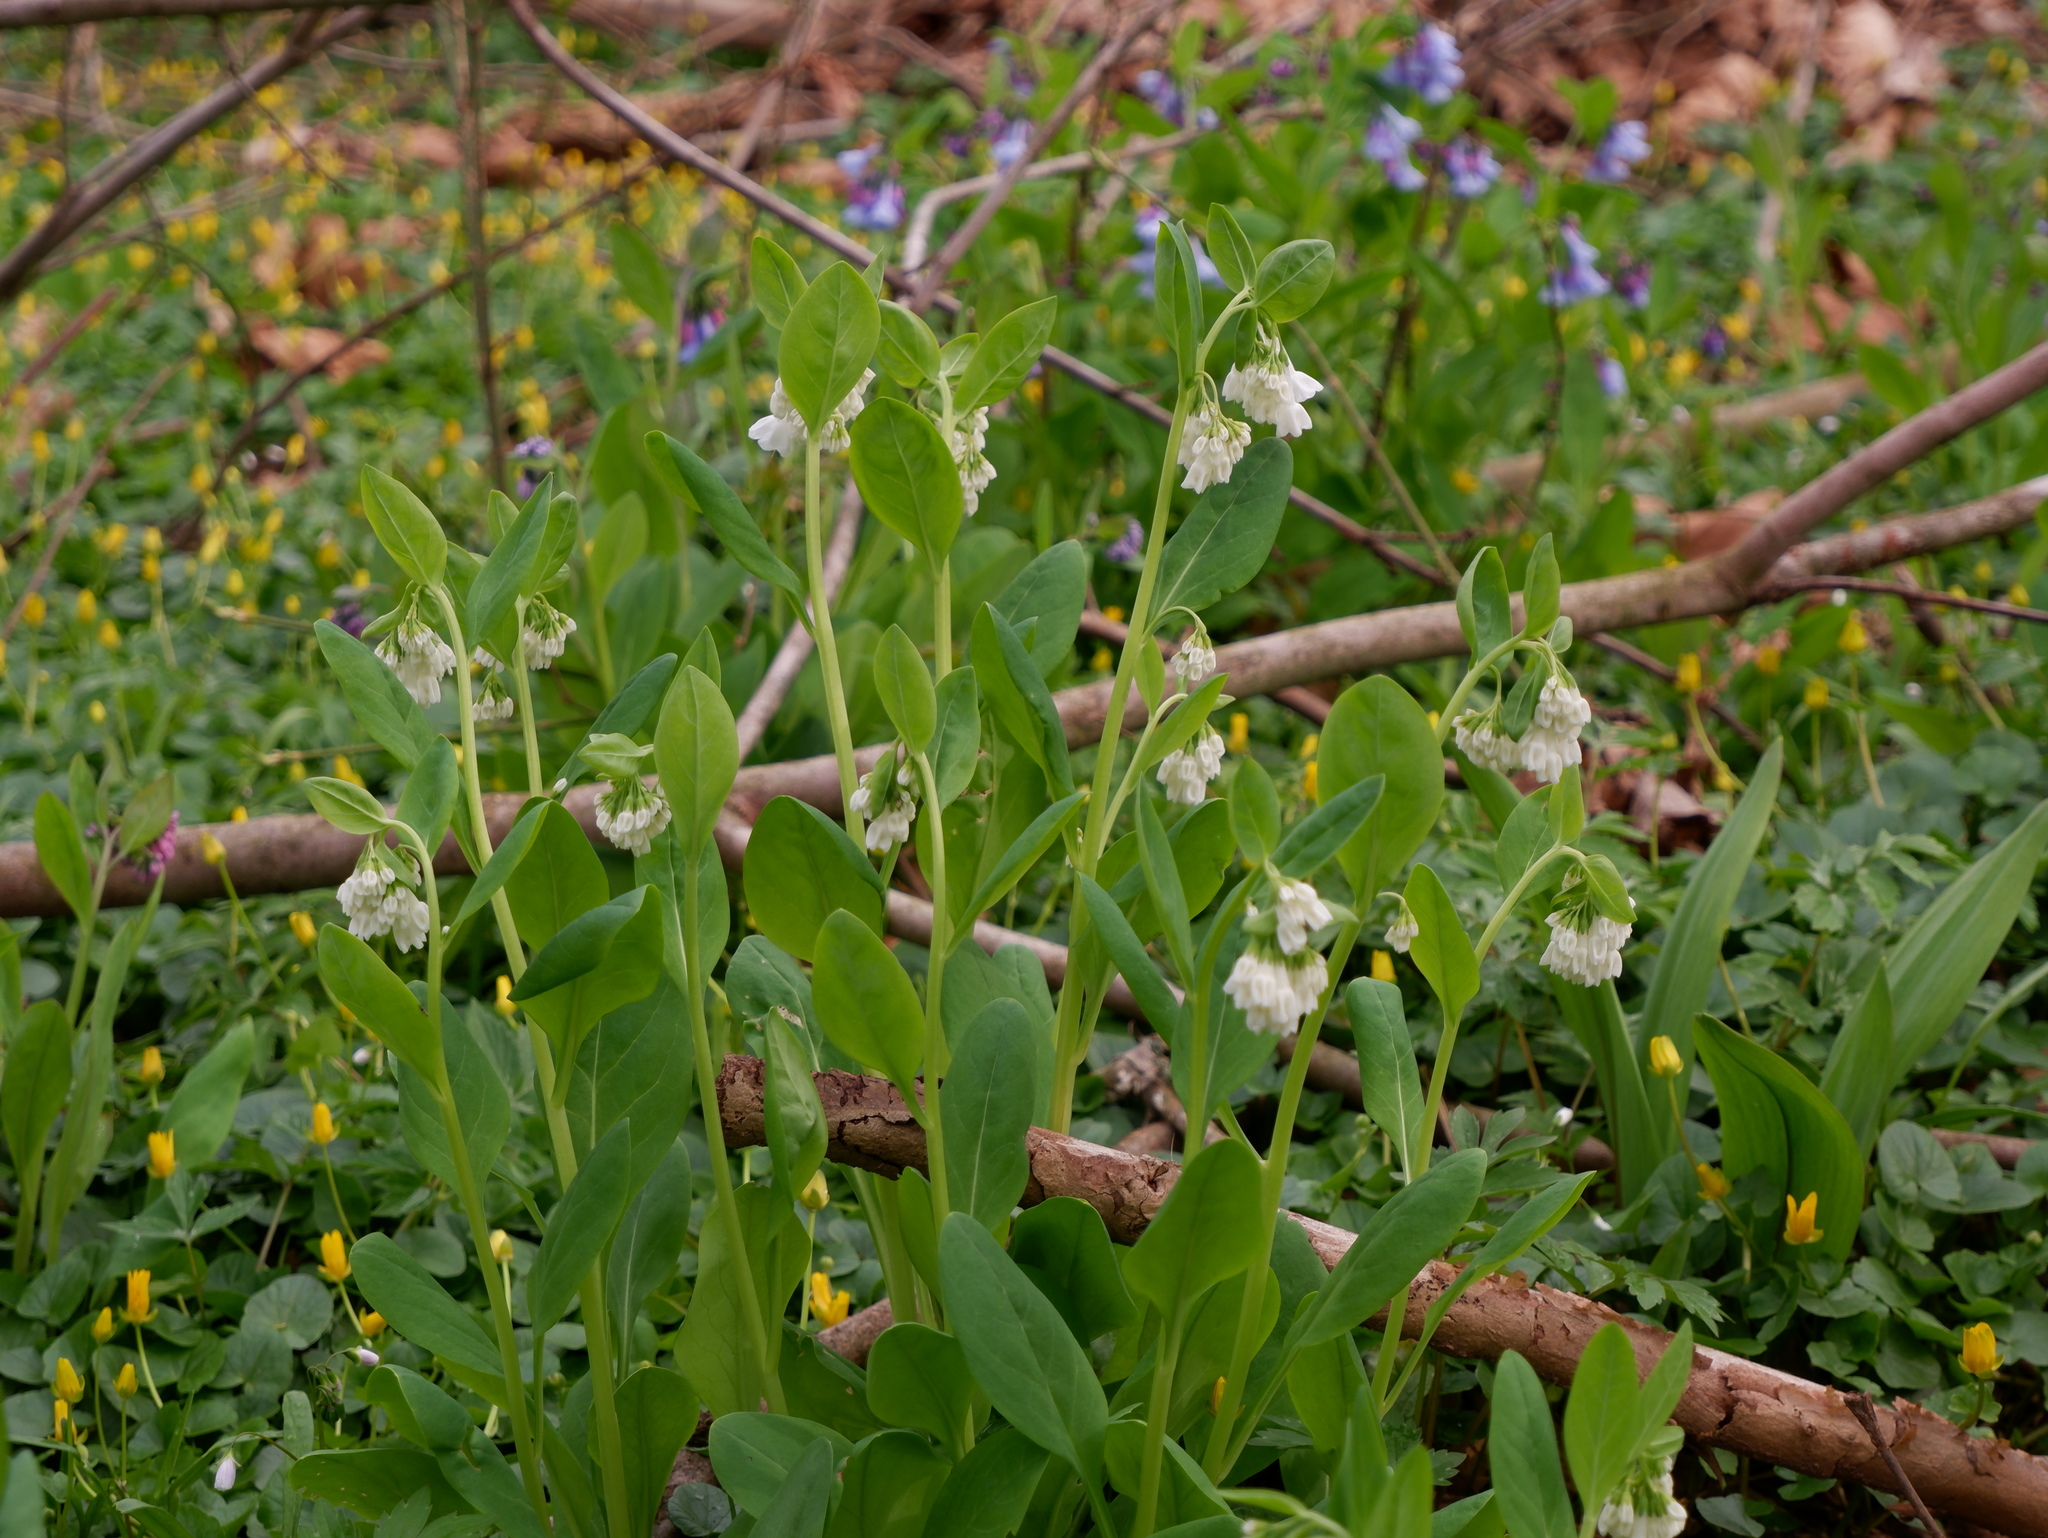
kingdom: Plantae
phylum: Tracheophyta
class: Magnoliopsida
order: Boraginales
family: Boraginaceae
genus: Mertensia
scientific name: Mertensia virginica
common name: Virginia bluebells
